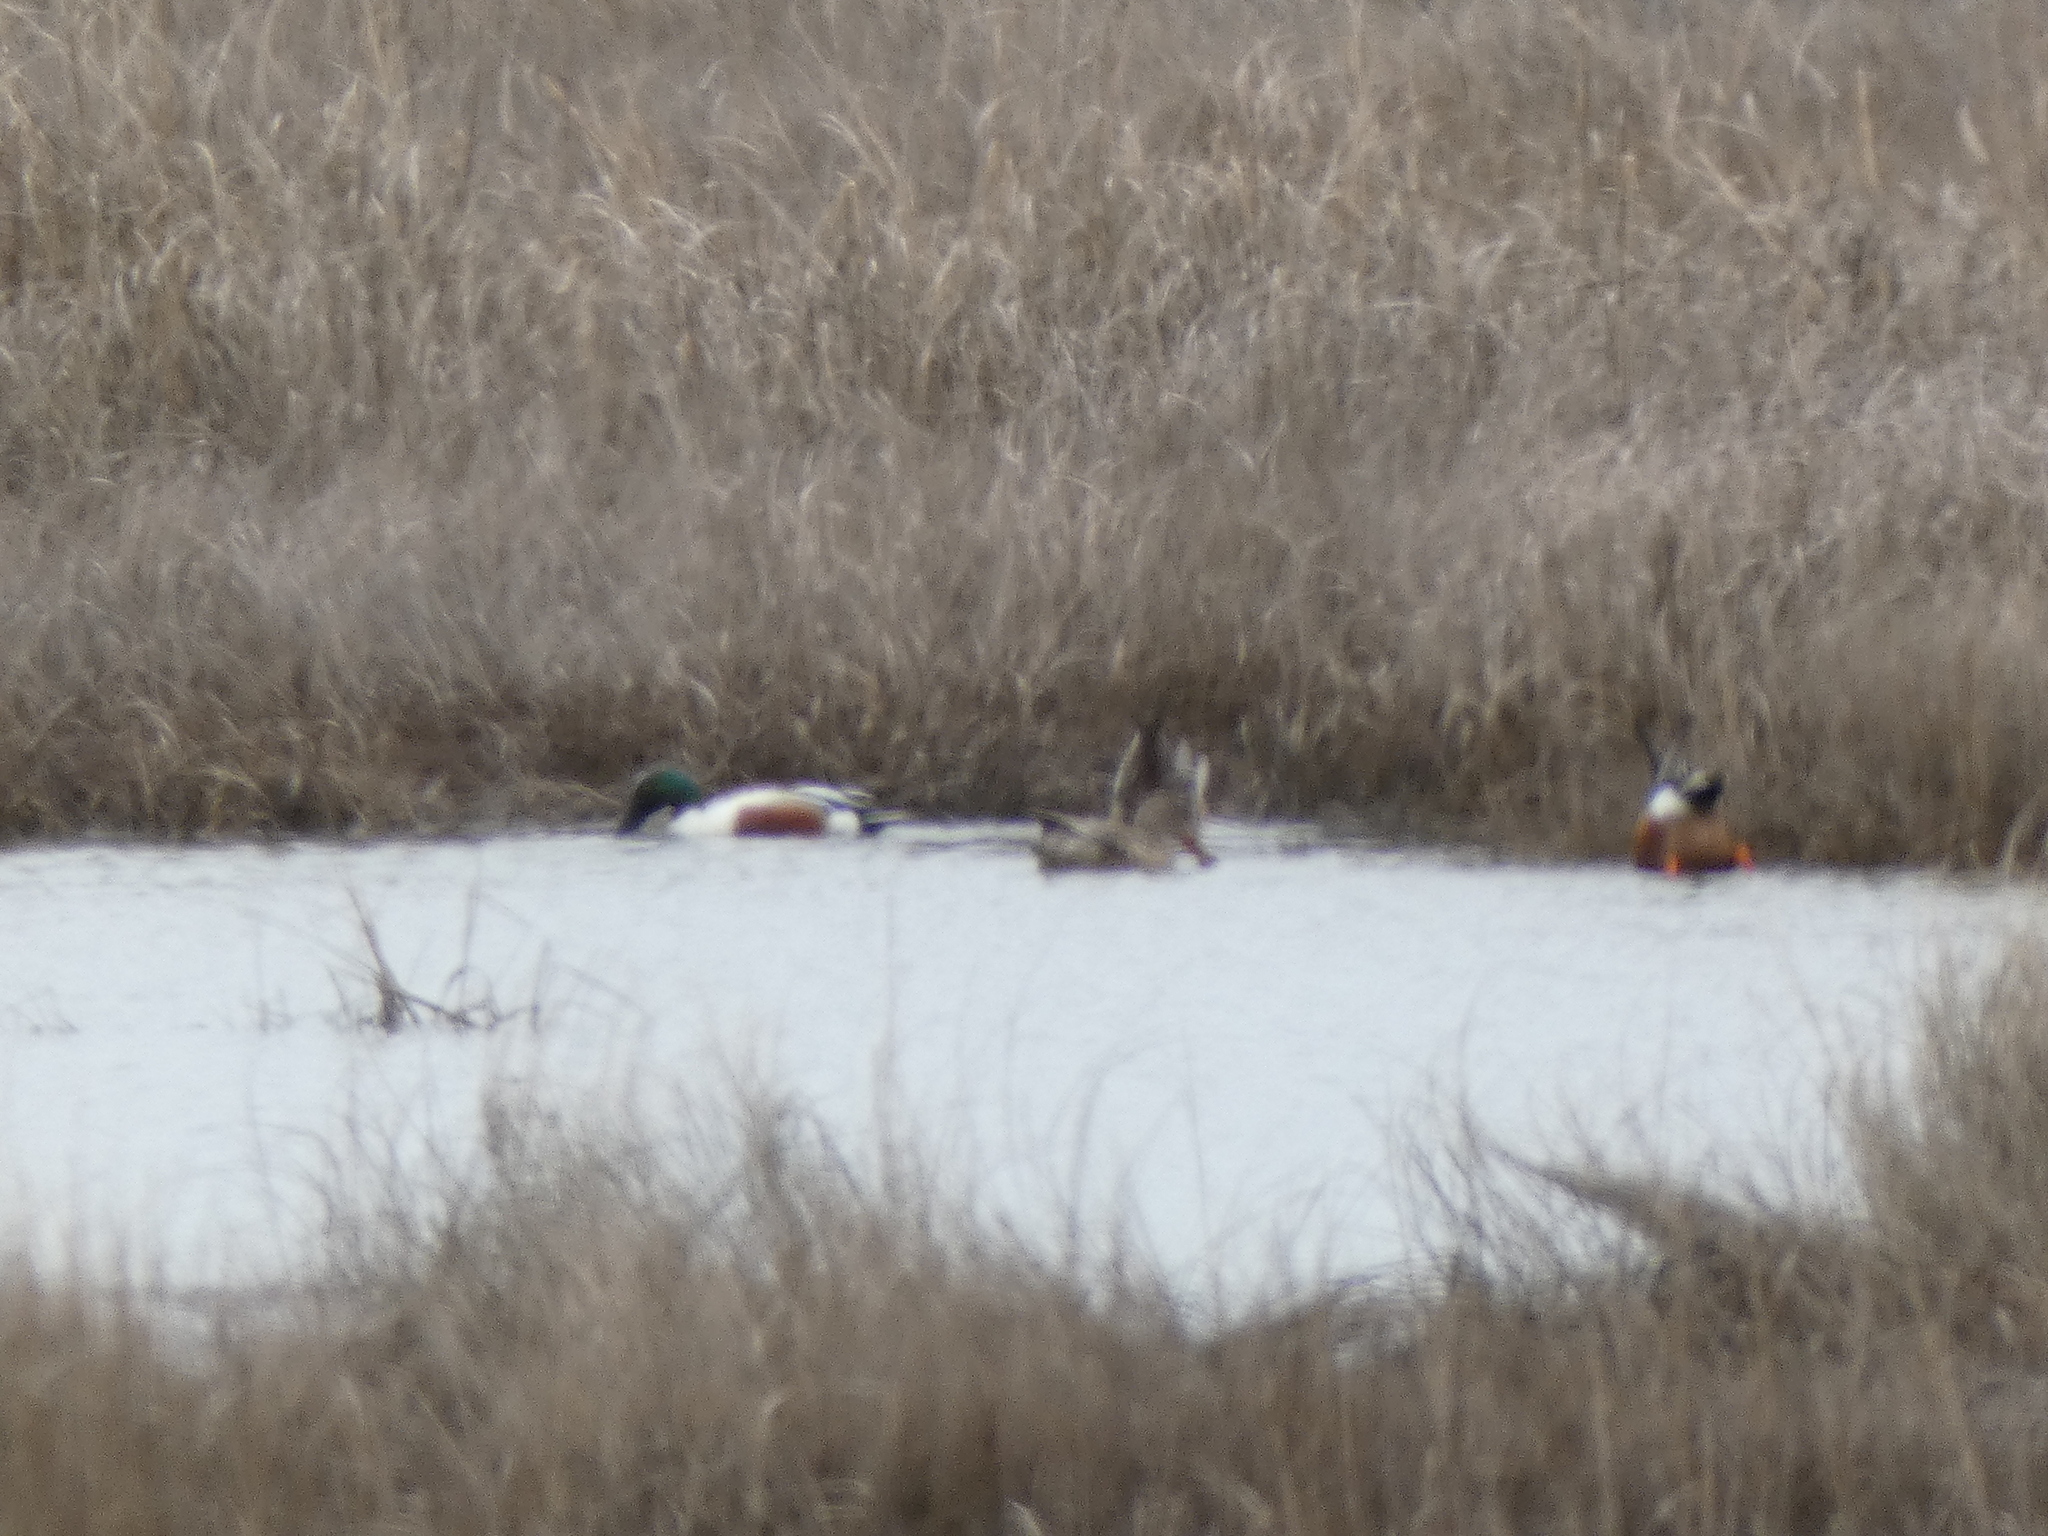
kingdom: Animalia
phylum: Chordata
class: Aves
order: Anseriformes
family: Anatidae
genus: Spatula
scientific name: Spatula clypeata
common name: Northern shoveler
